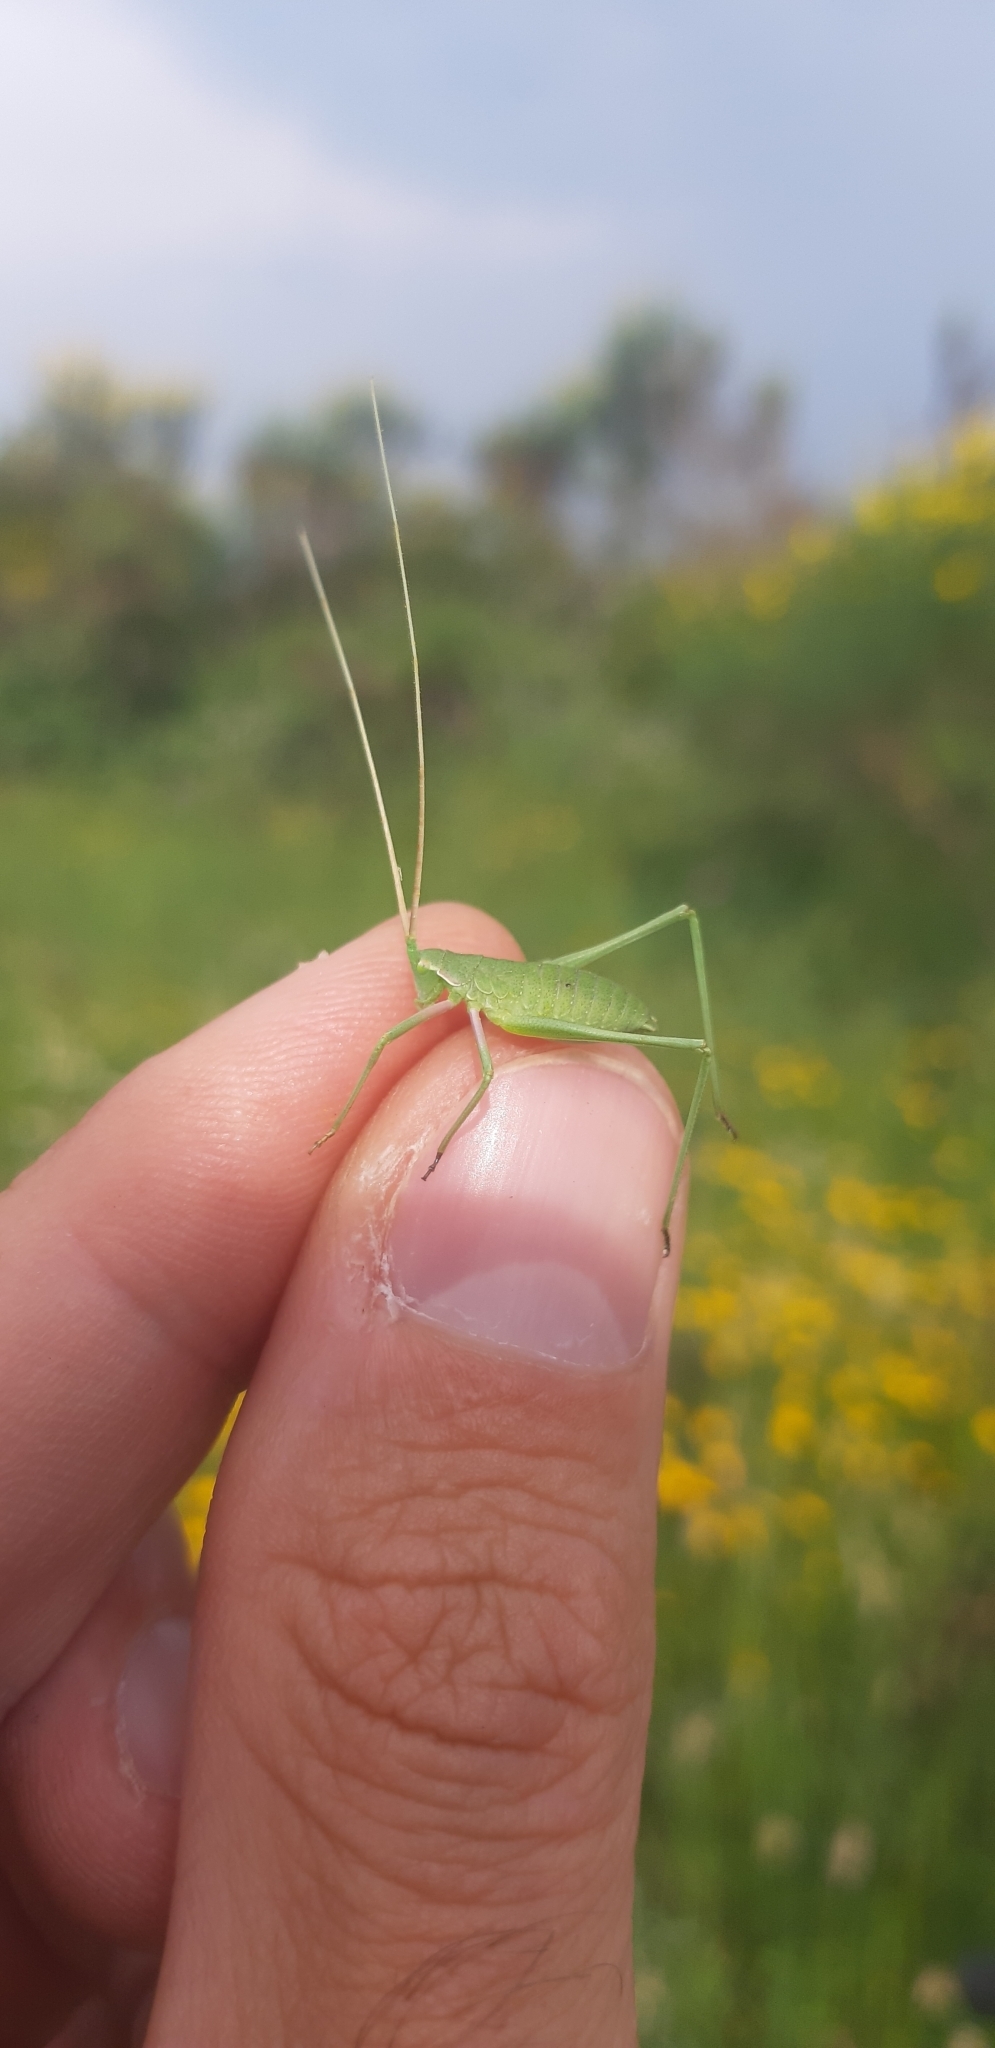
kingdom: Animalia
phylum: Arthropoda
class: Insecta
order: Orthoptera
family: Tettigoniidae
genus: Acrometopa
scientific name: Acrometopa italica
